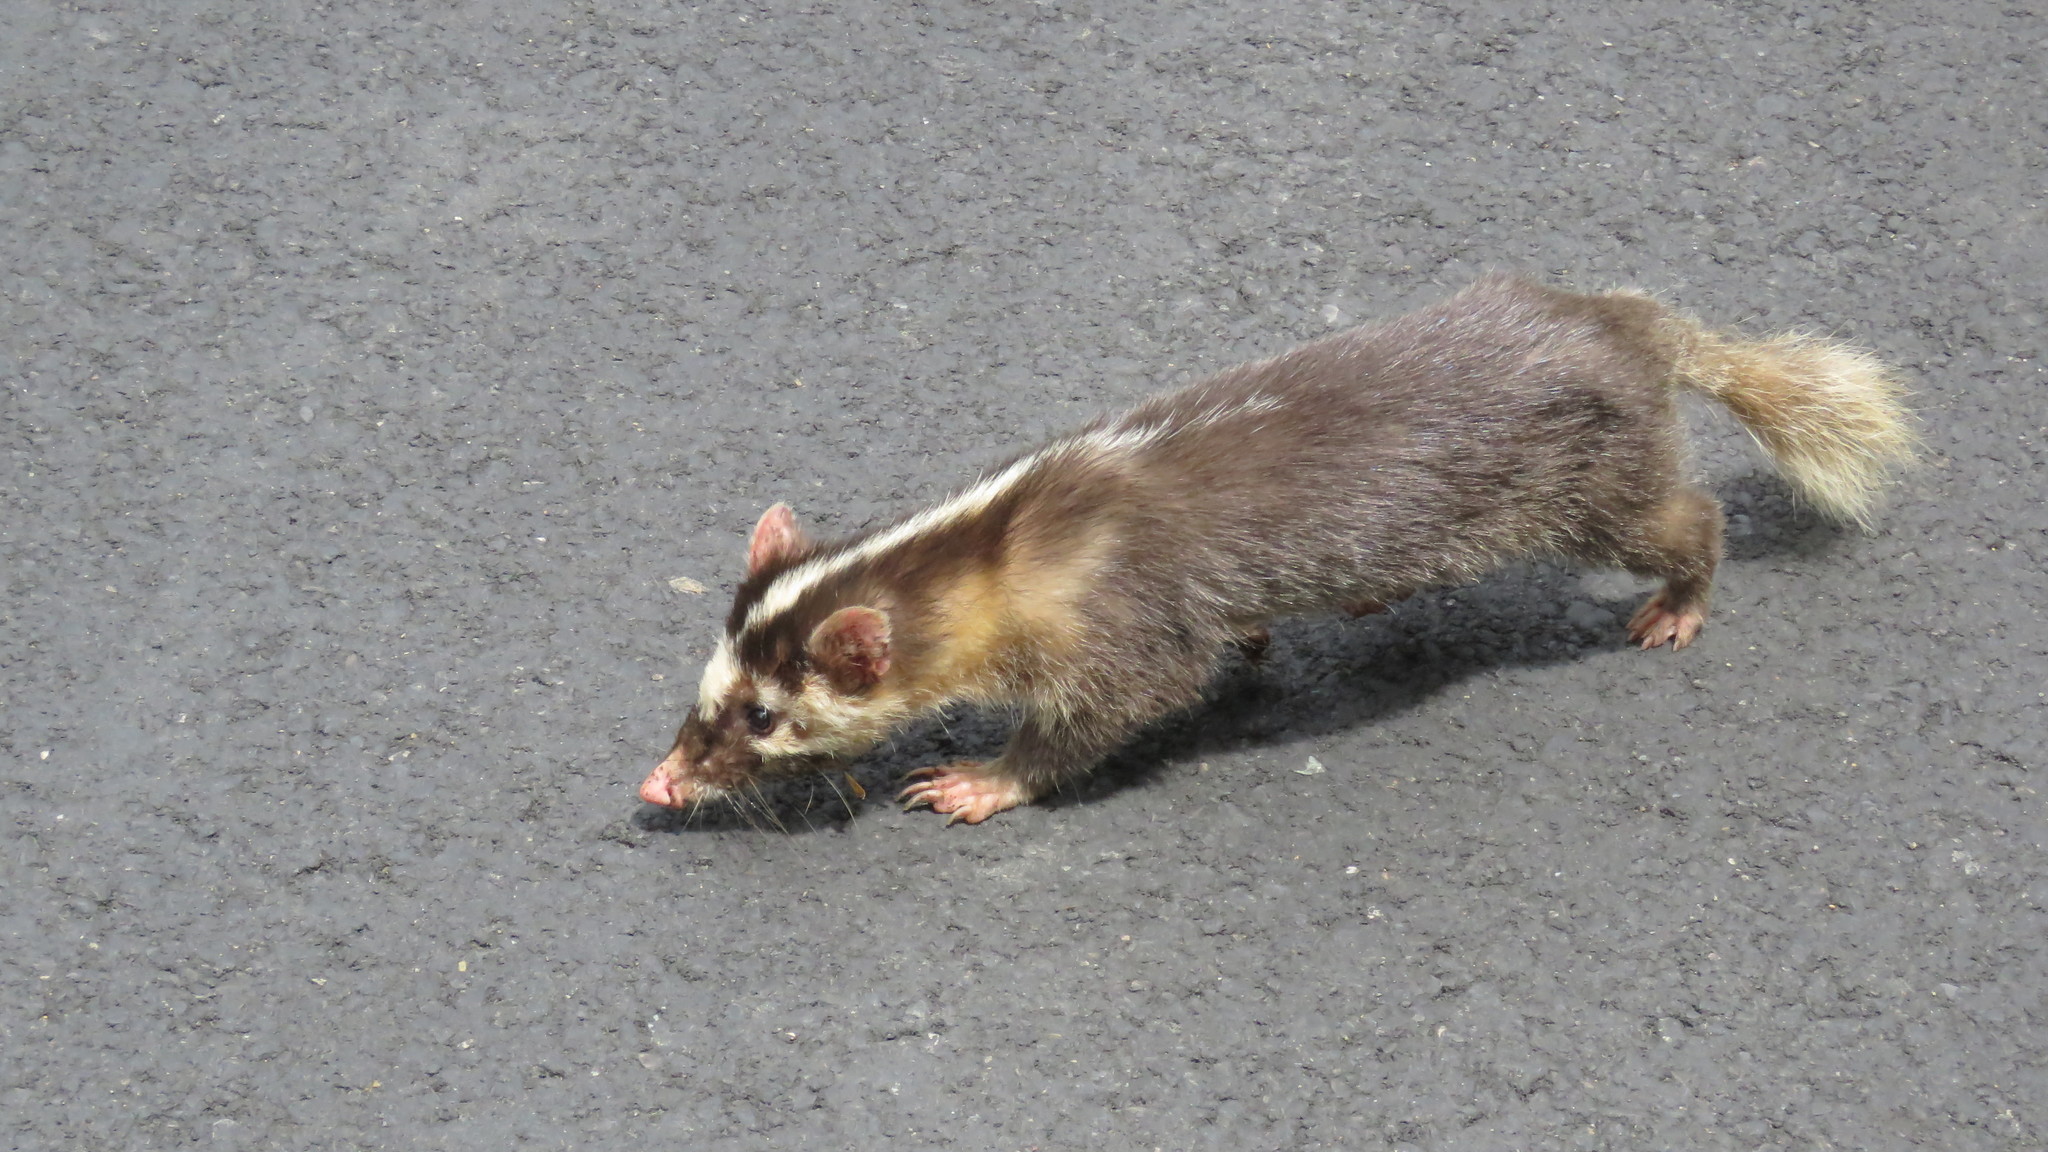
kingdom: Animalia
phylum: Chordata
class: Mammalia
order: Carnivora
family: Mustelidae
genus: Melogale
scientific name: Melogale
